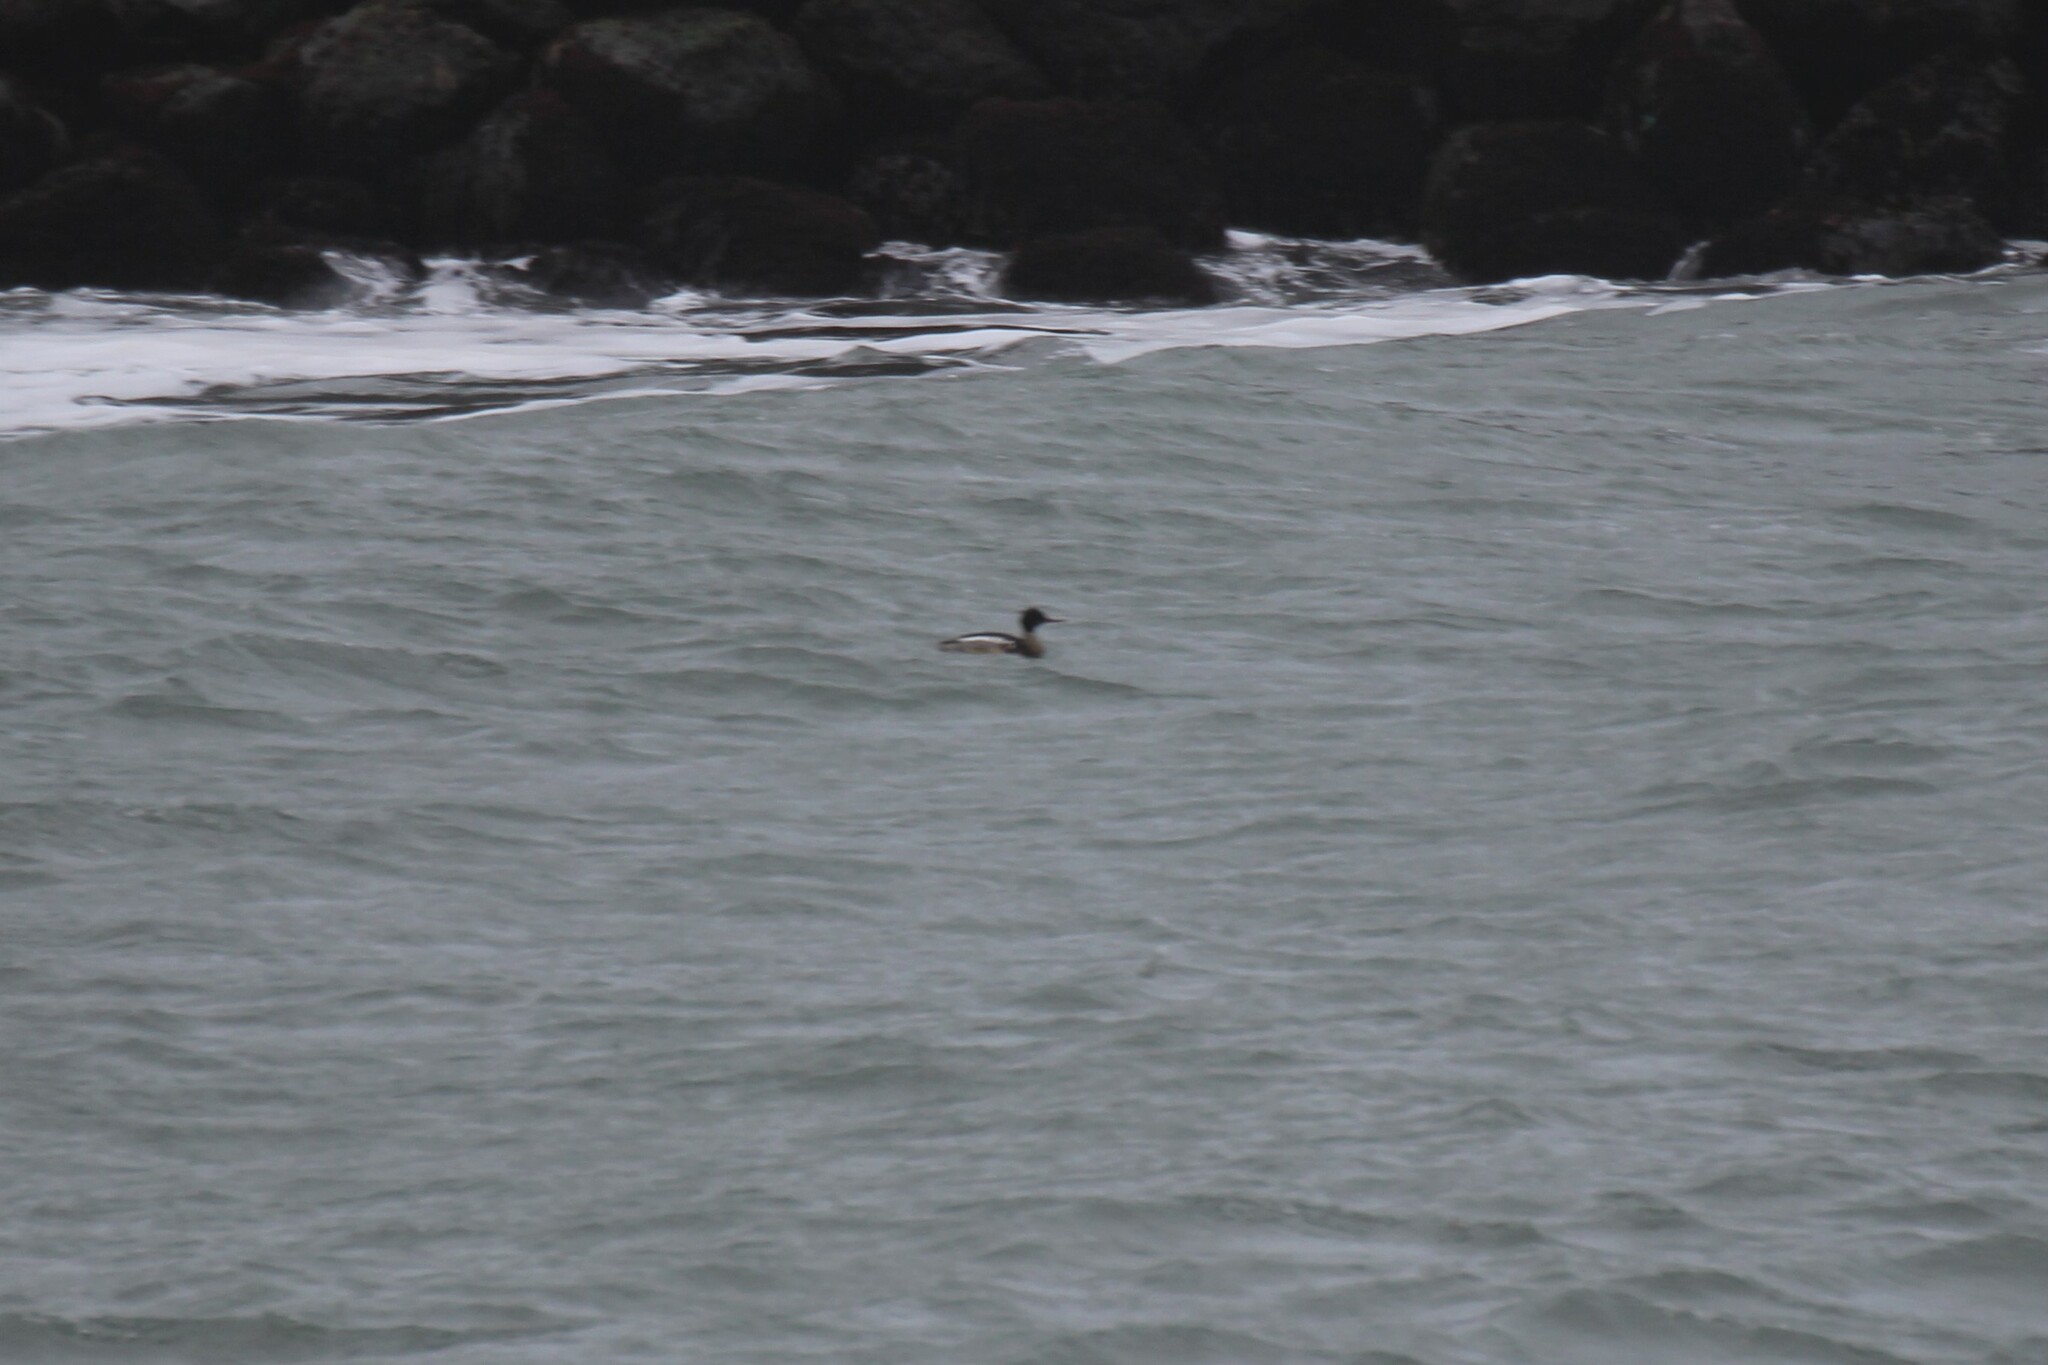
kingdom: Animalia
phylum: Chordata
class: Aves
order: Anseriformes
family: Anatidae
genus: Mergus
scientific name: Mergus serrator
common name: Red-breasted merganser
